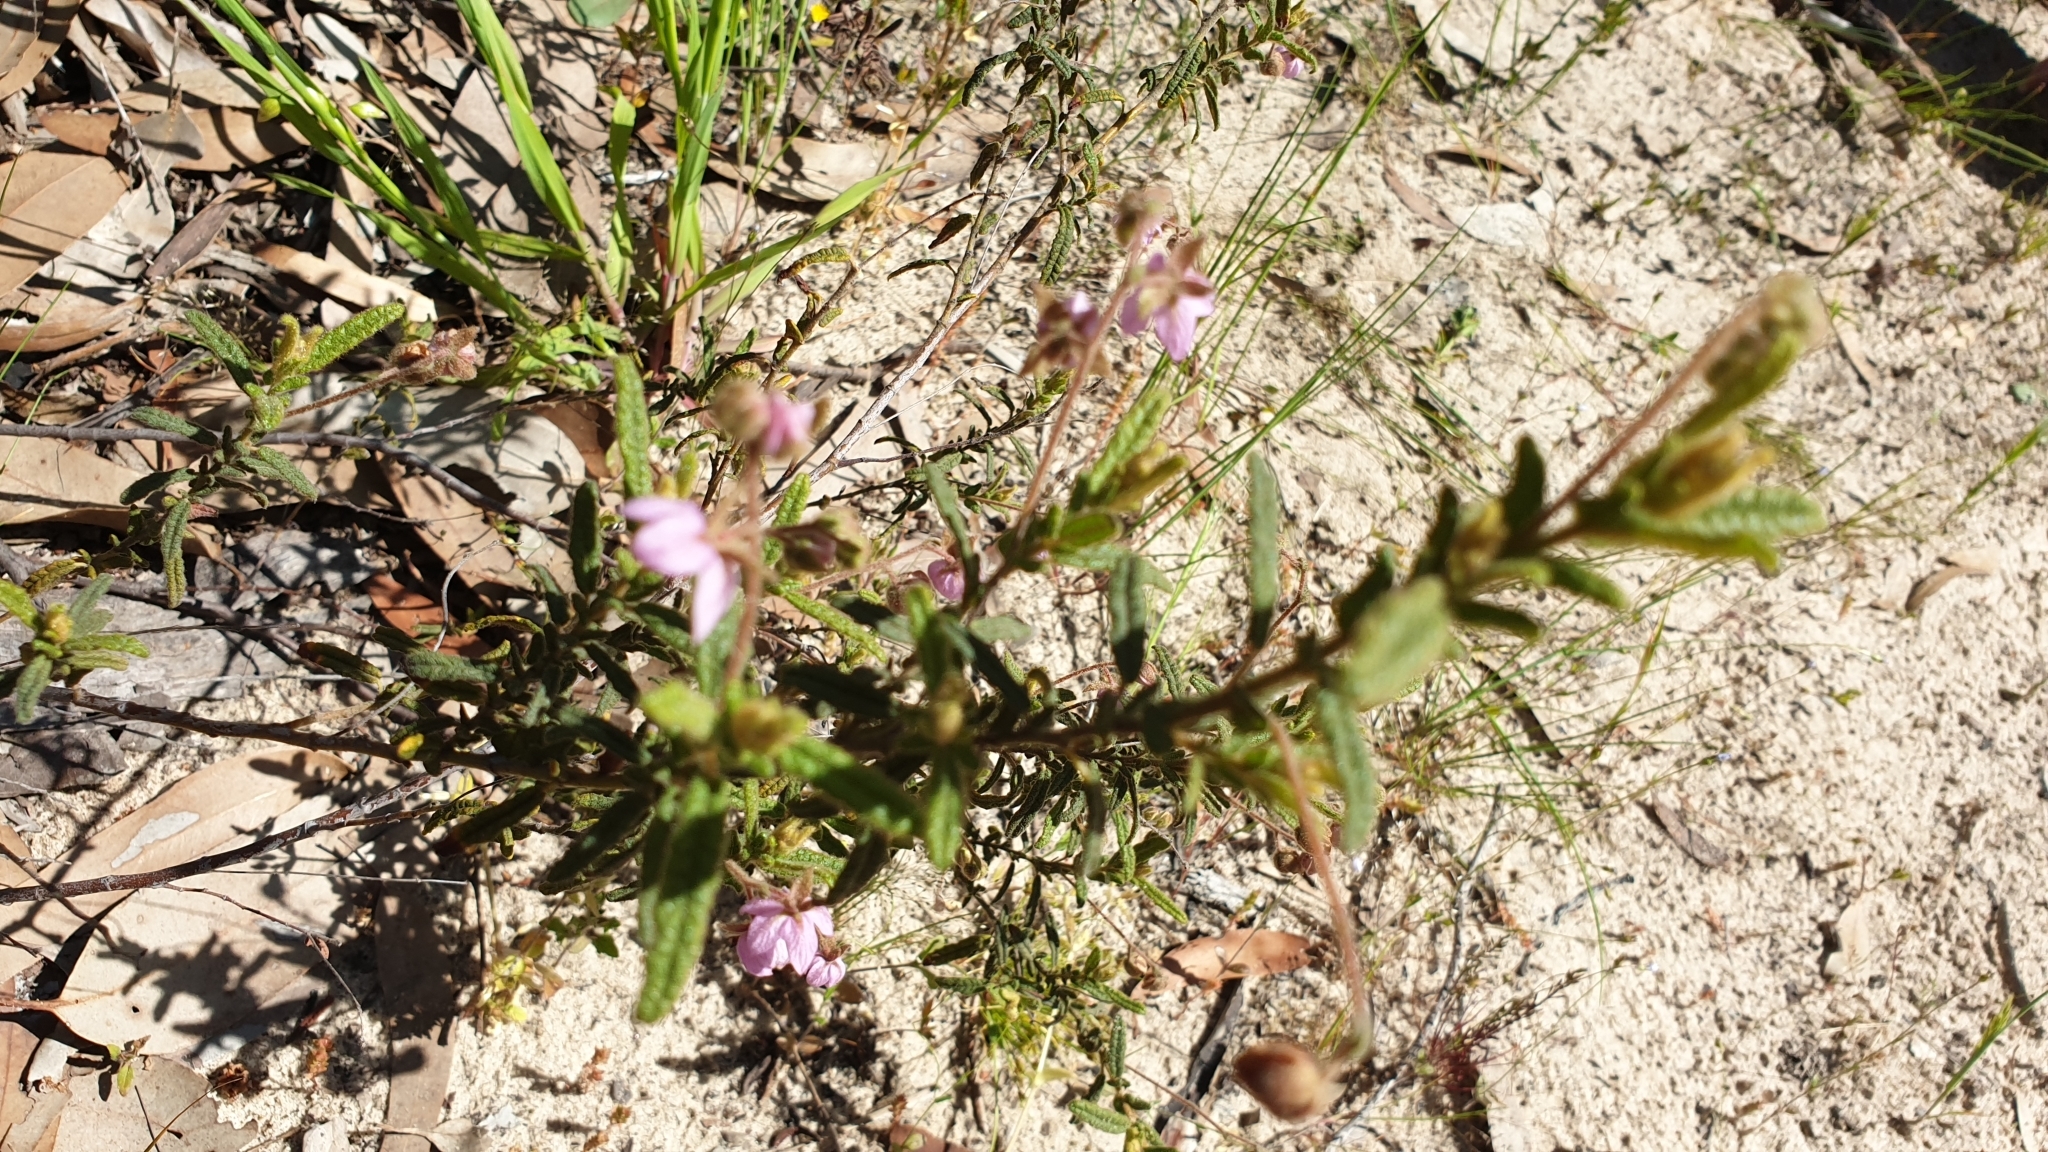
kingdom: Plantae
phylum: Tracheophyta
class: Magnoliopsida
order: Malvales
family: Malvaceae
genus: Thomasia
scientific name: Thomasia petalocalyx
